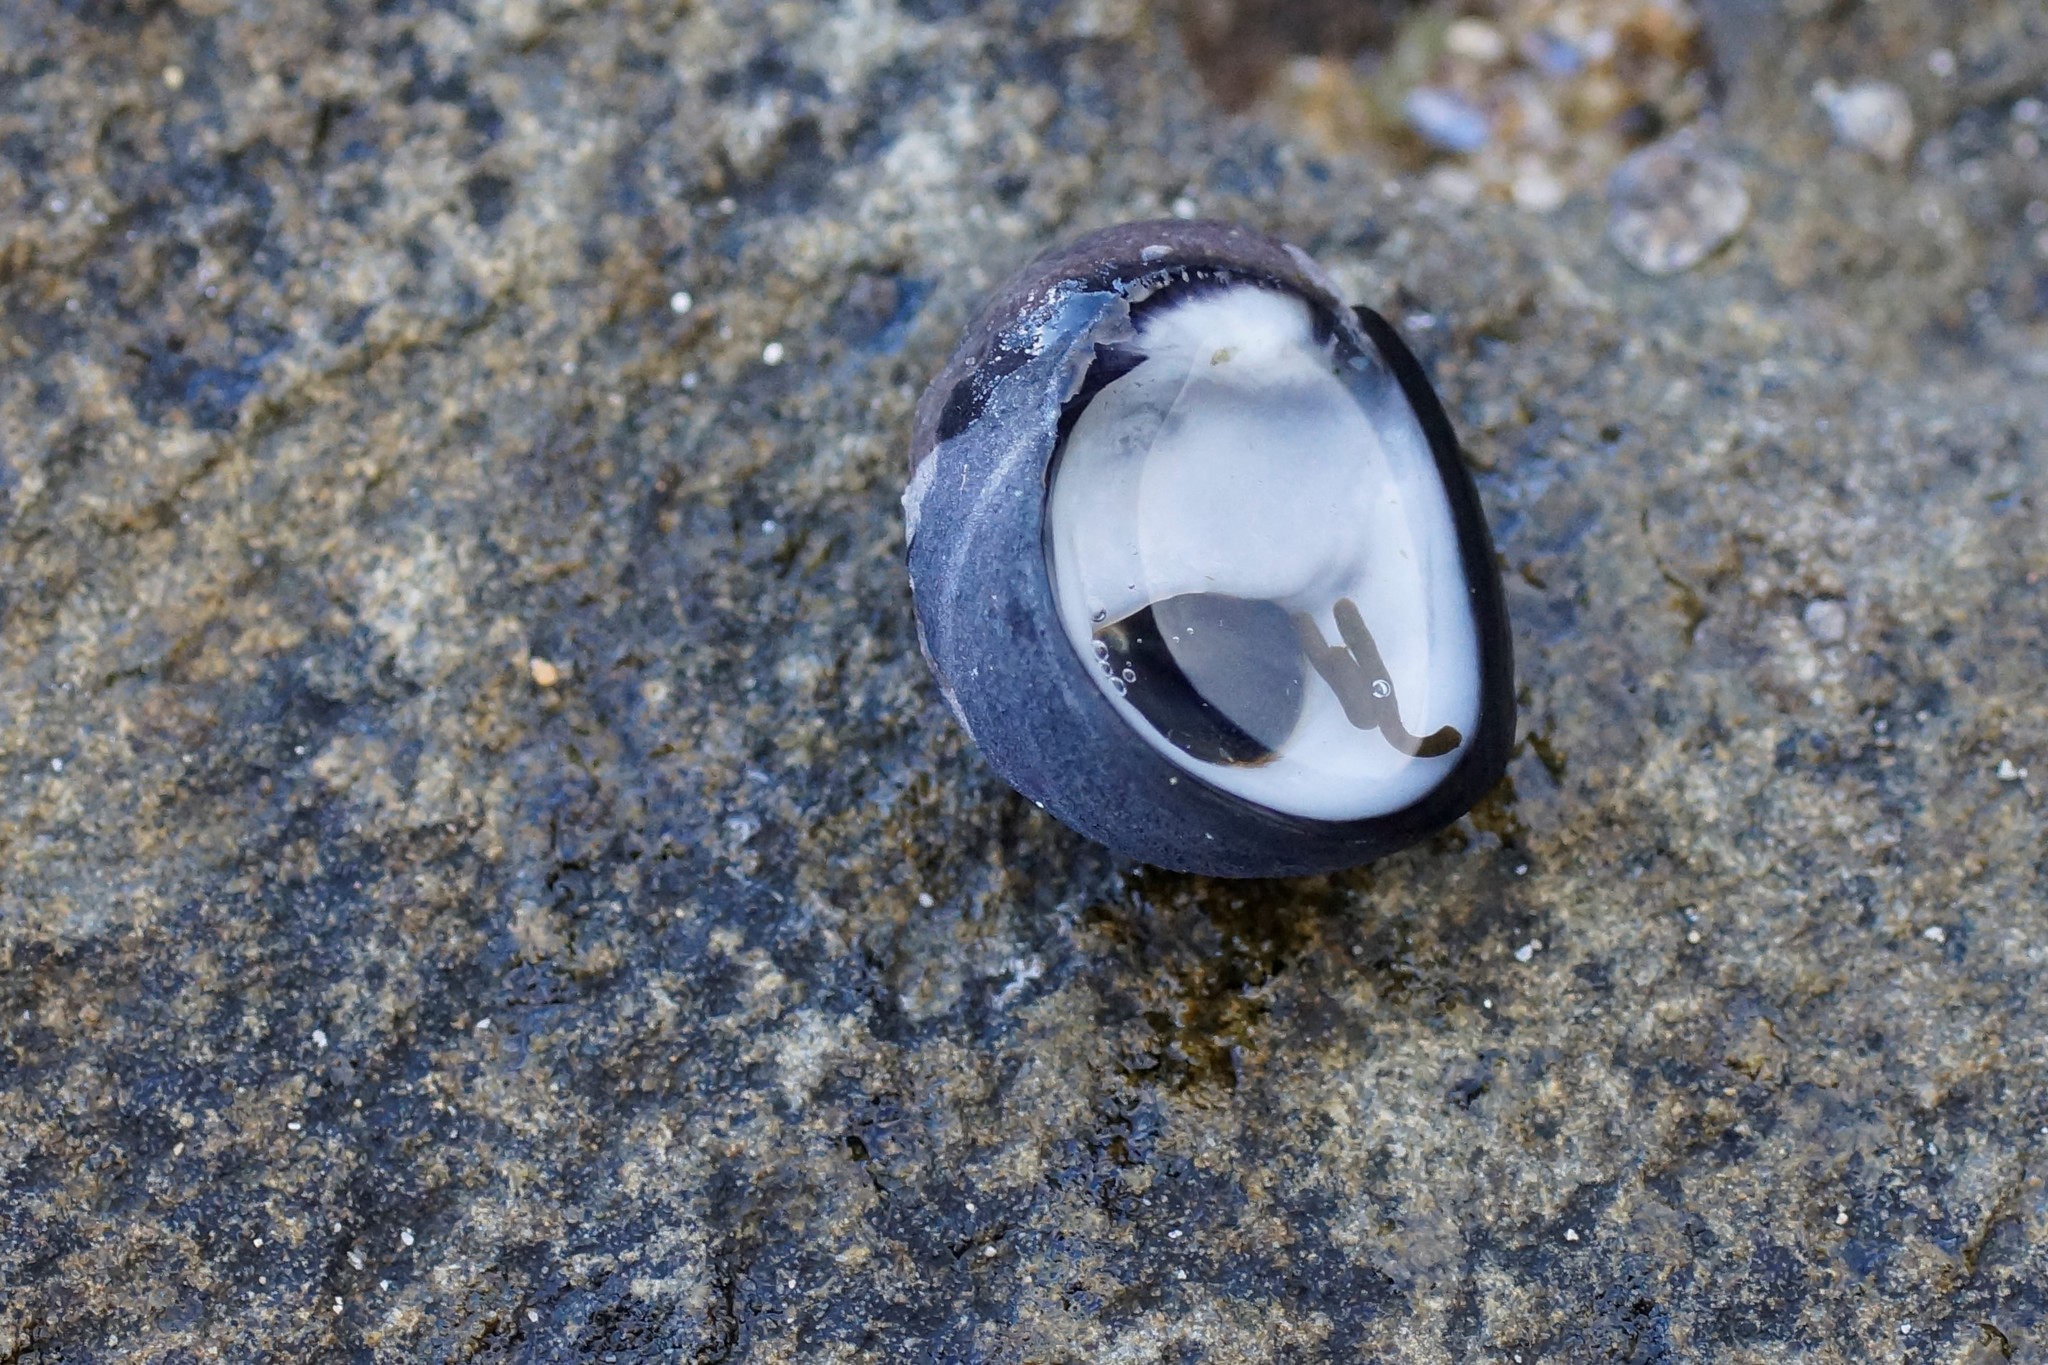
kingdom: Animalia
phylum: Mollusca
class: Gastropoda
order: Cycloneritida
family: Neritidae
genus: Nerita
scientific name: Nerita atramentosa
